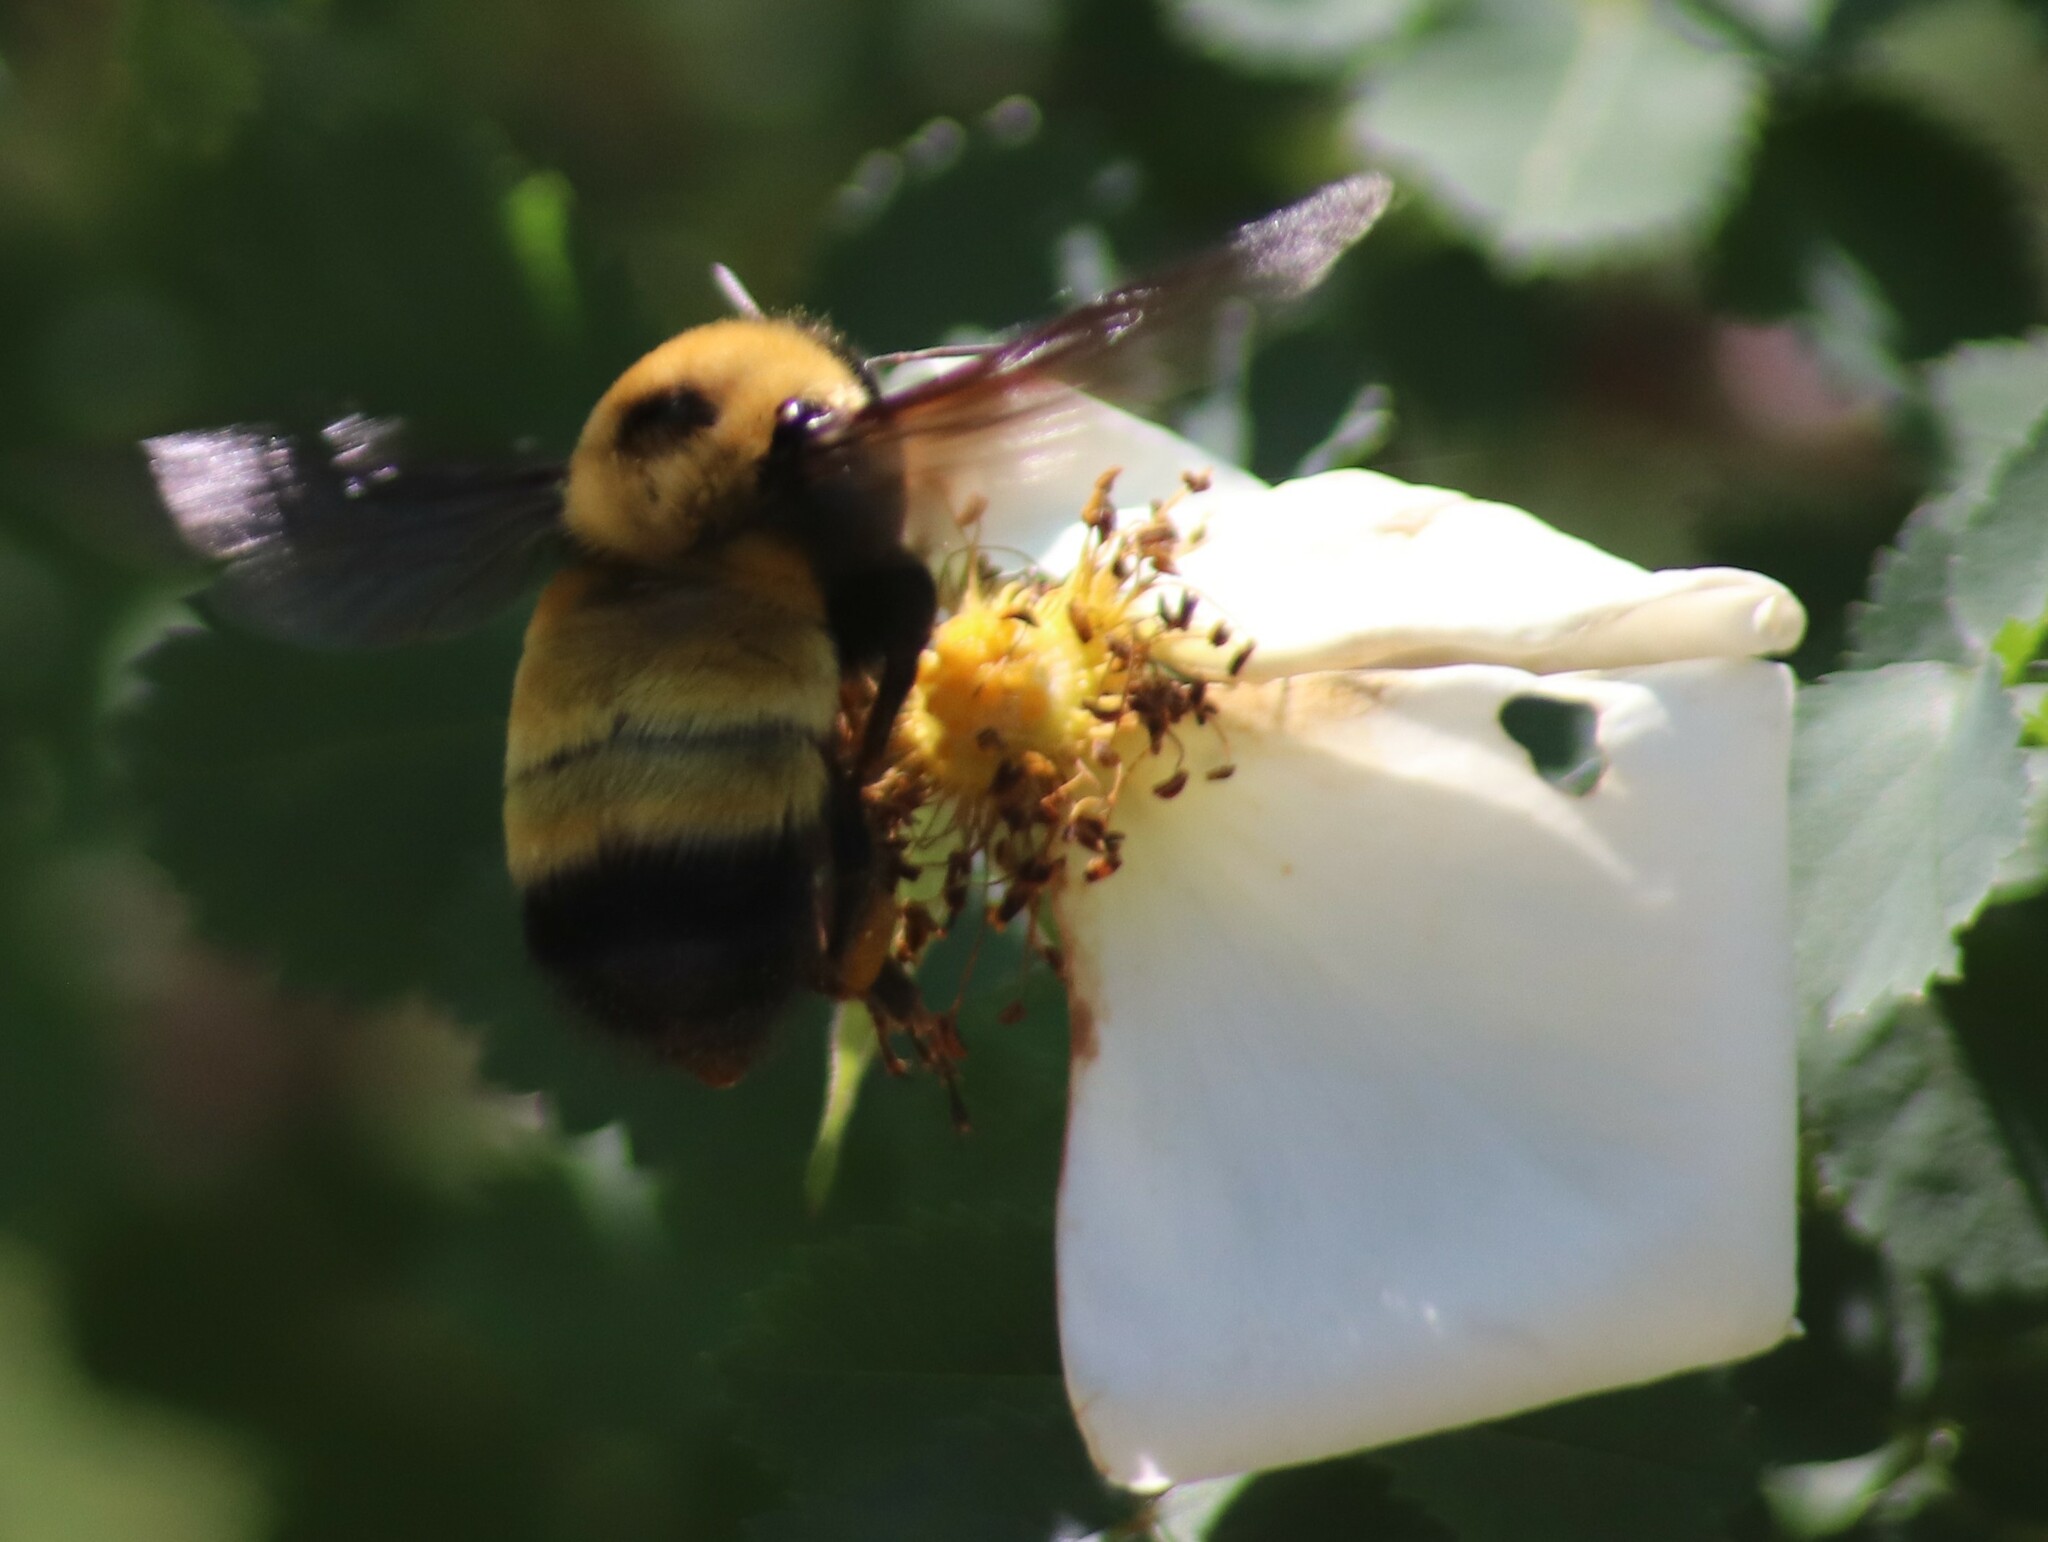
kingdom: Animalia
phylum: Arthropoda
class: Insecta
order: Hymenoptera
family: Apidae
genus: Bombus
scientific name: Bombus nevadensis
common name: Nevada bumble bee
